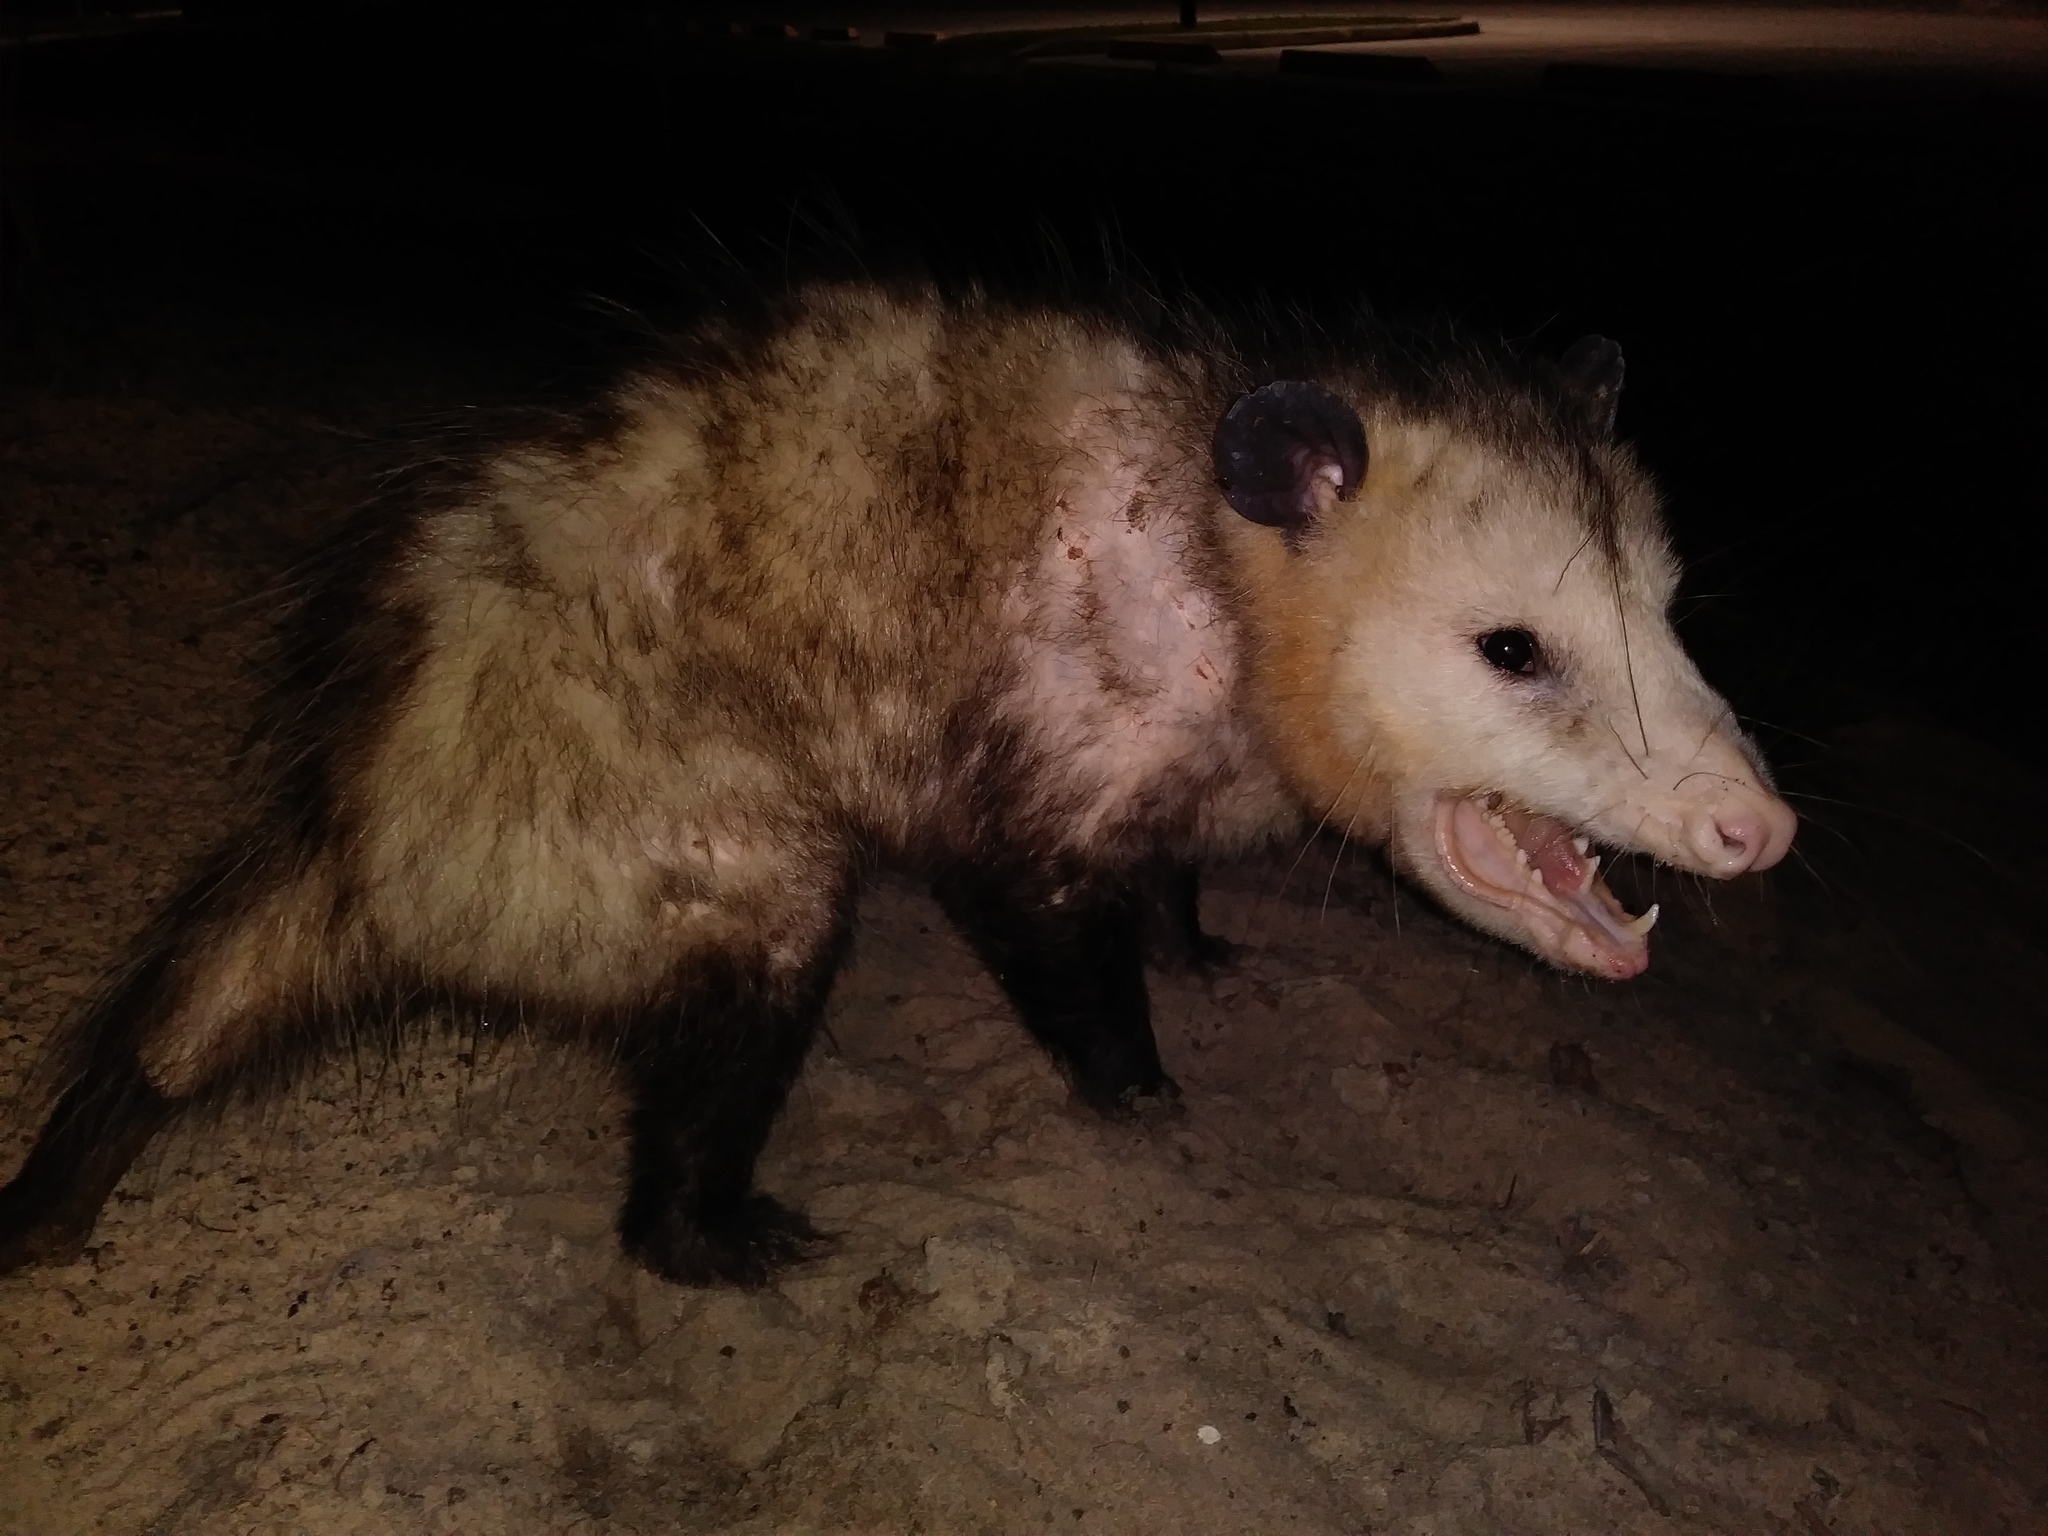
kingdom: Animalia
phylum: Chordata
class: Mammalia
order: Didelphimorphia
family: Didelphidae
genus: Didelphis
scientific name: Didelphis virginiana
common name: Virginia opossum
